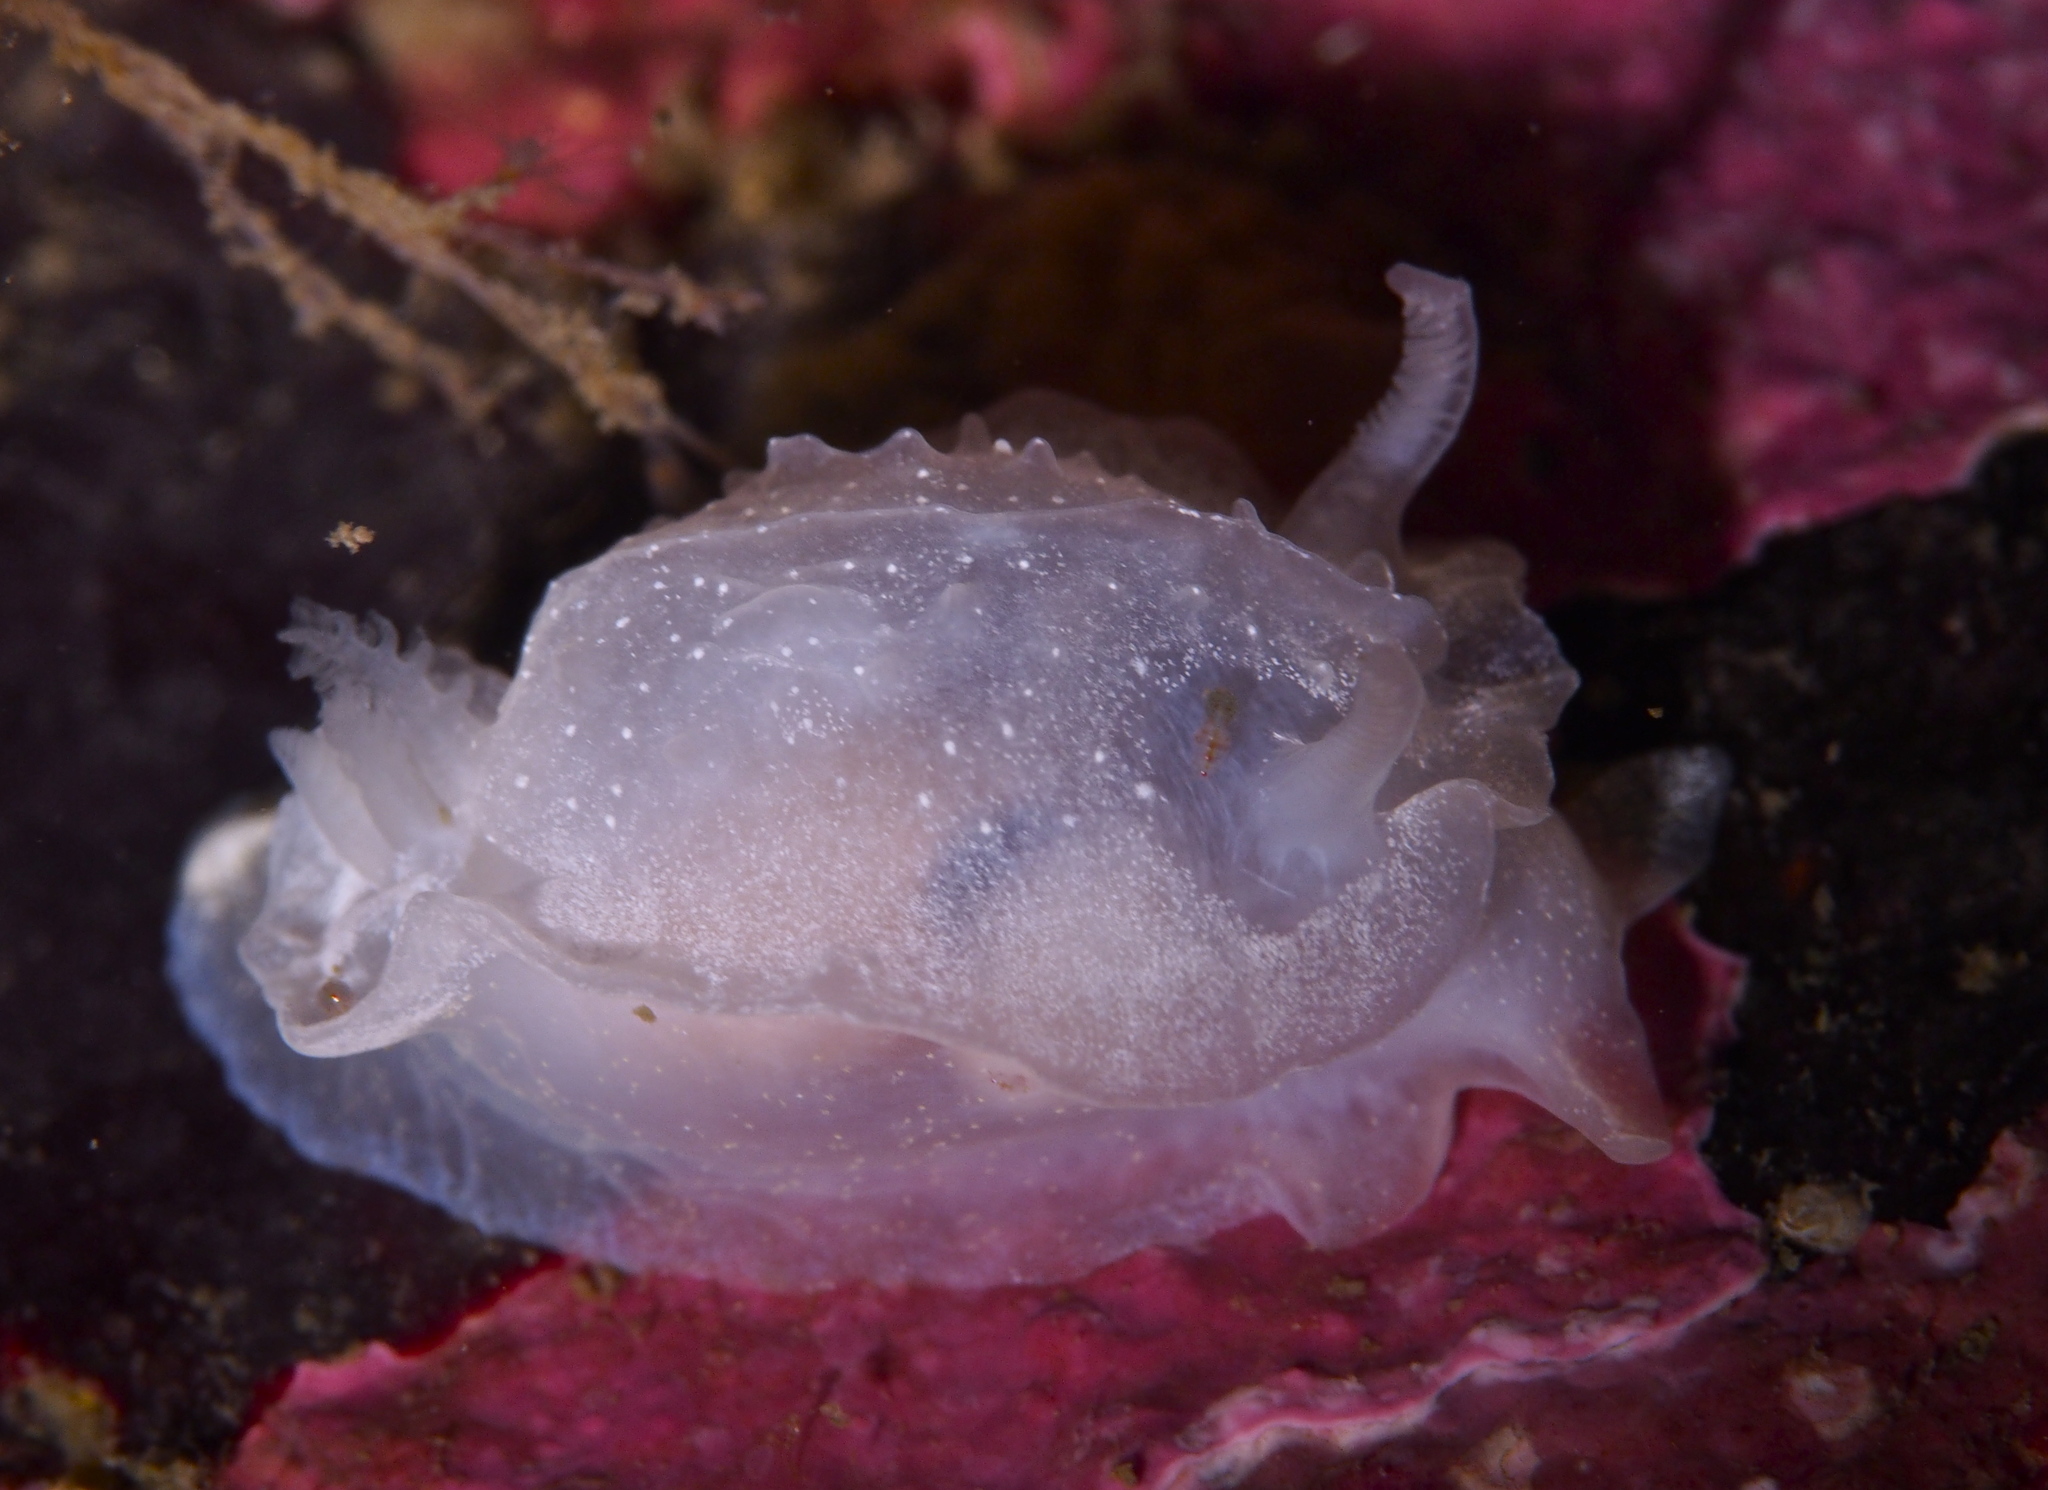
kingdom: Animalia
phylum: Mollusca
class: Gastropoda
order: Nudibranchia
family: Goniodorididae
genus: Okenia
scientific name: Okenia
